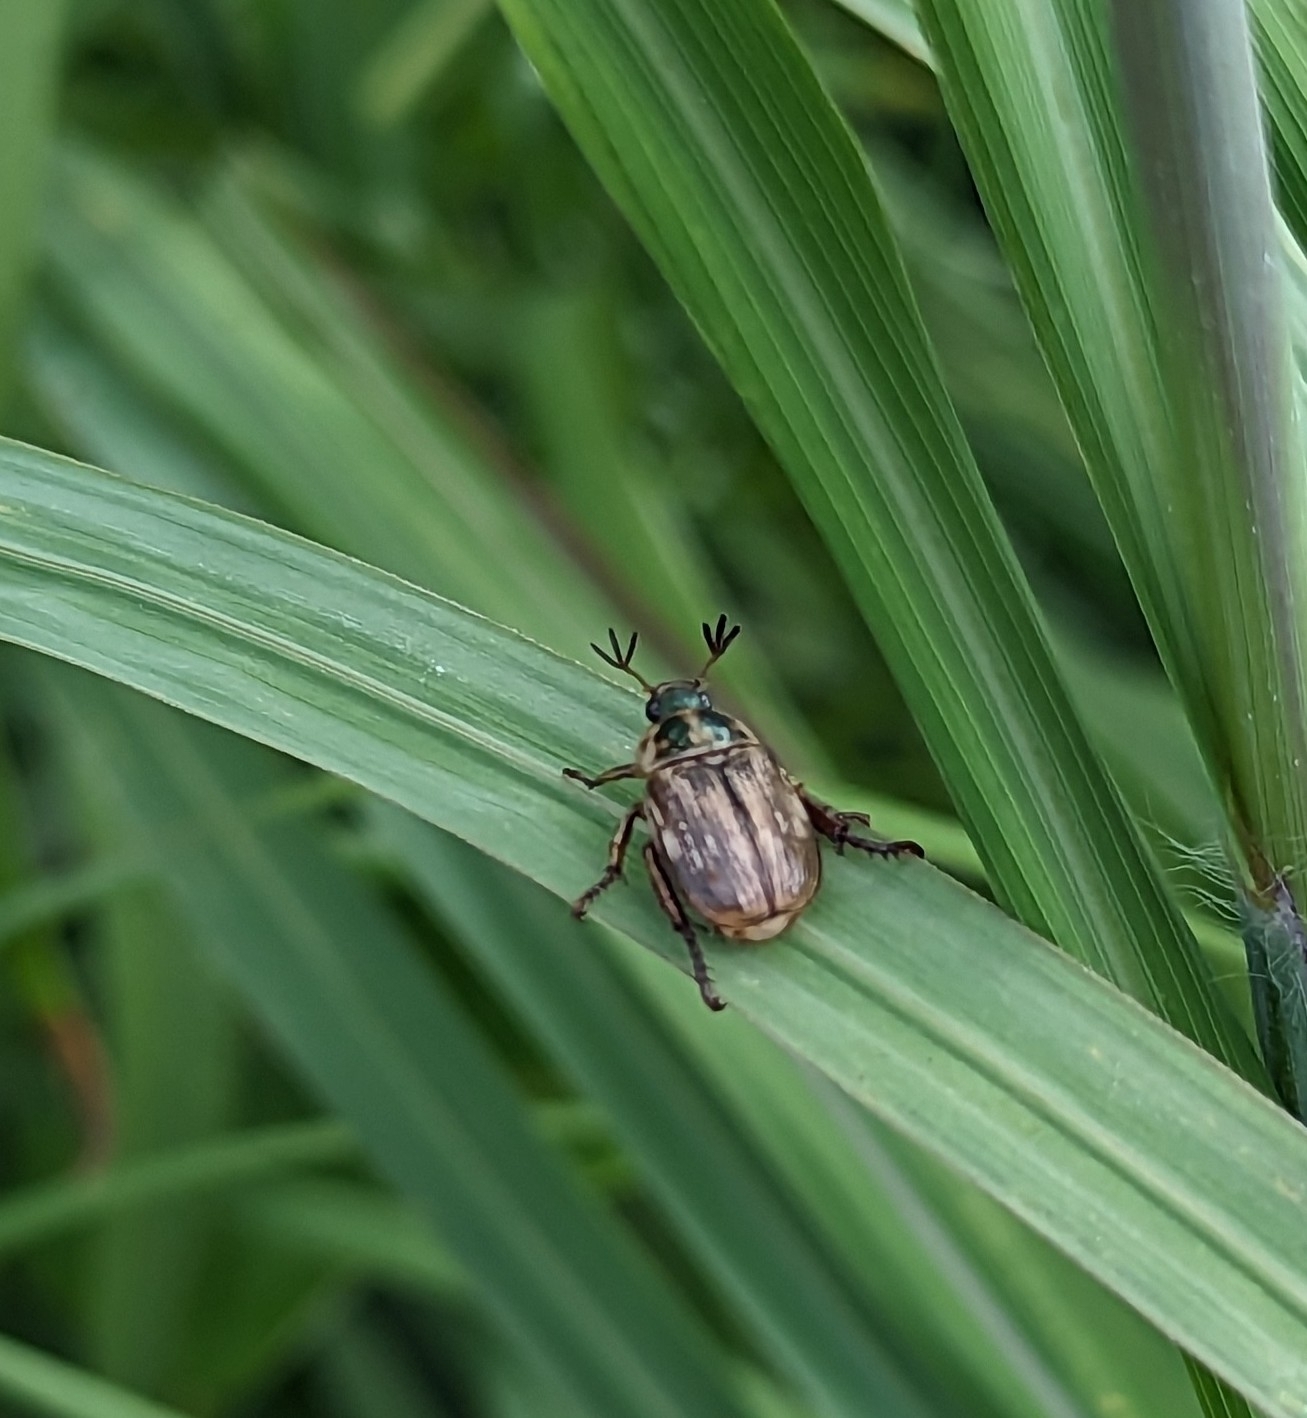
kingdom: Animalia
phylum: Arthropoda
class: Insecta
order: Coleoptera
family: Scarabaeidae
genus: Exomala
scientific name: Exomala orientalis
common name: Oriental beetle
